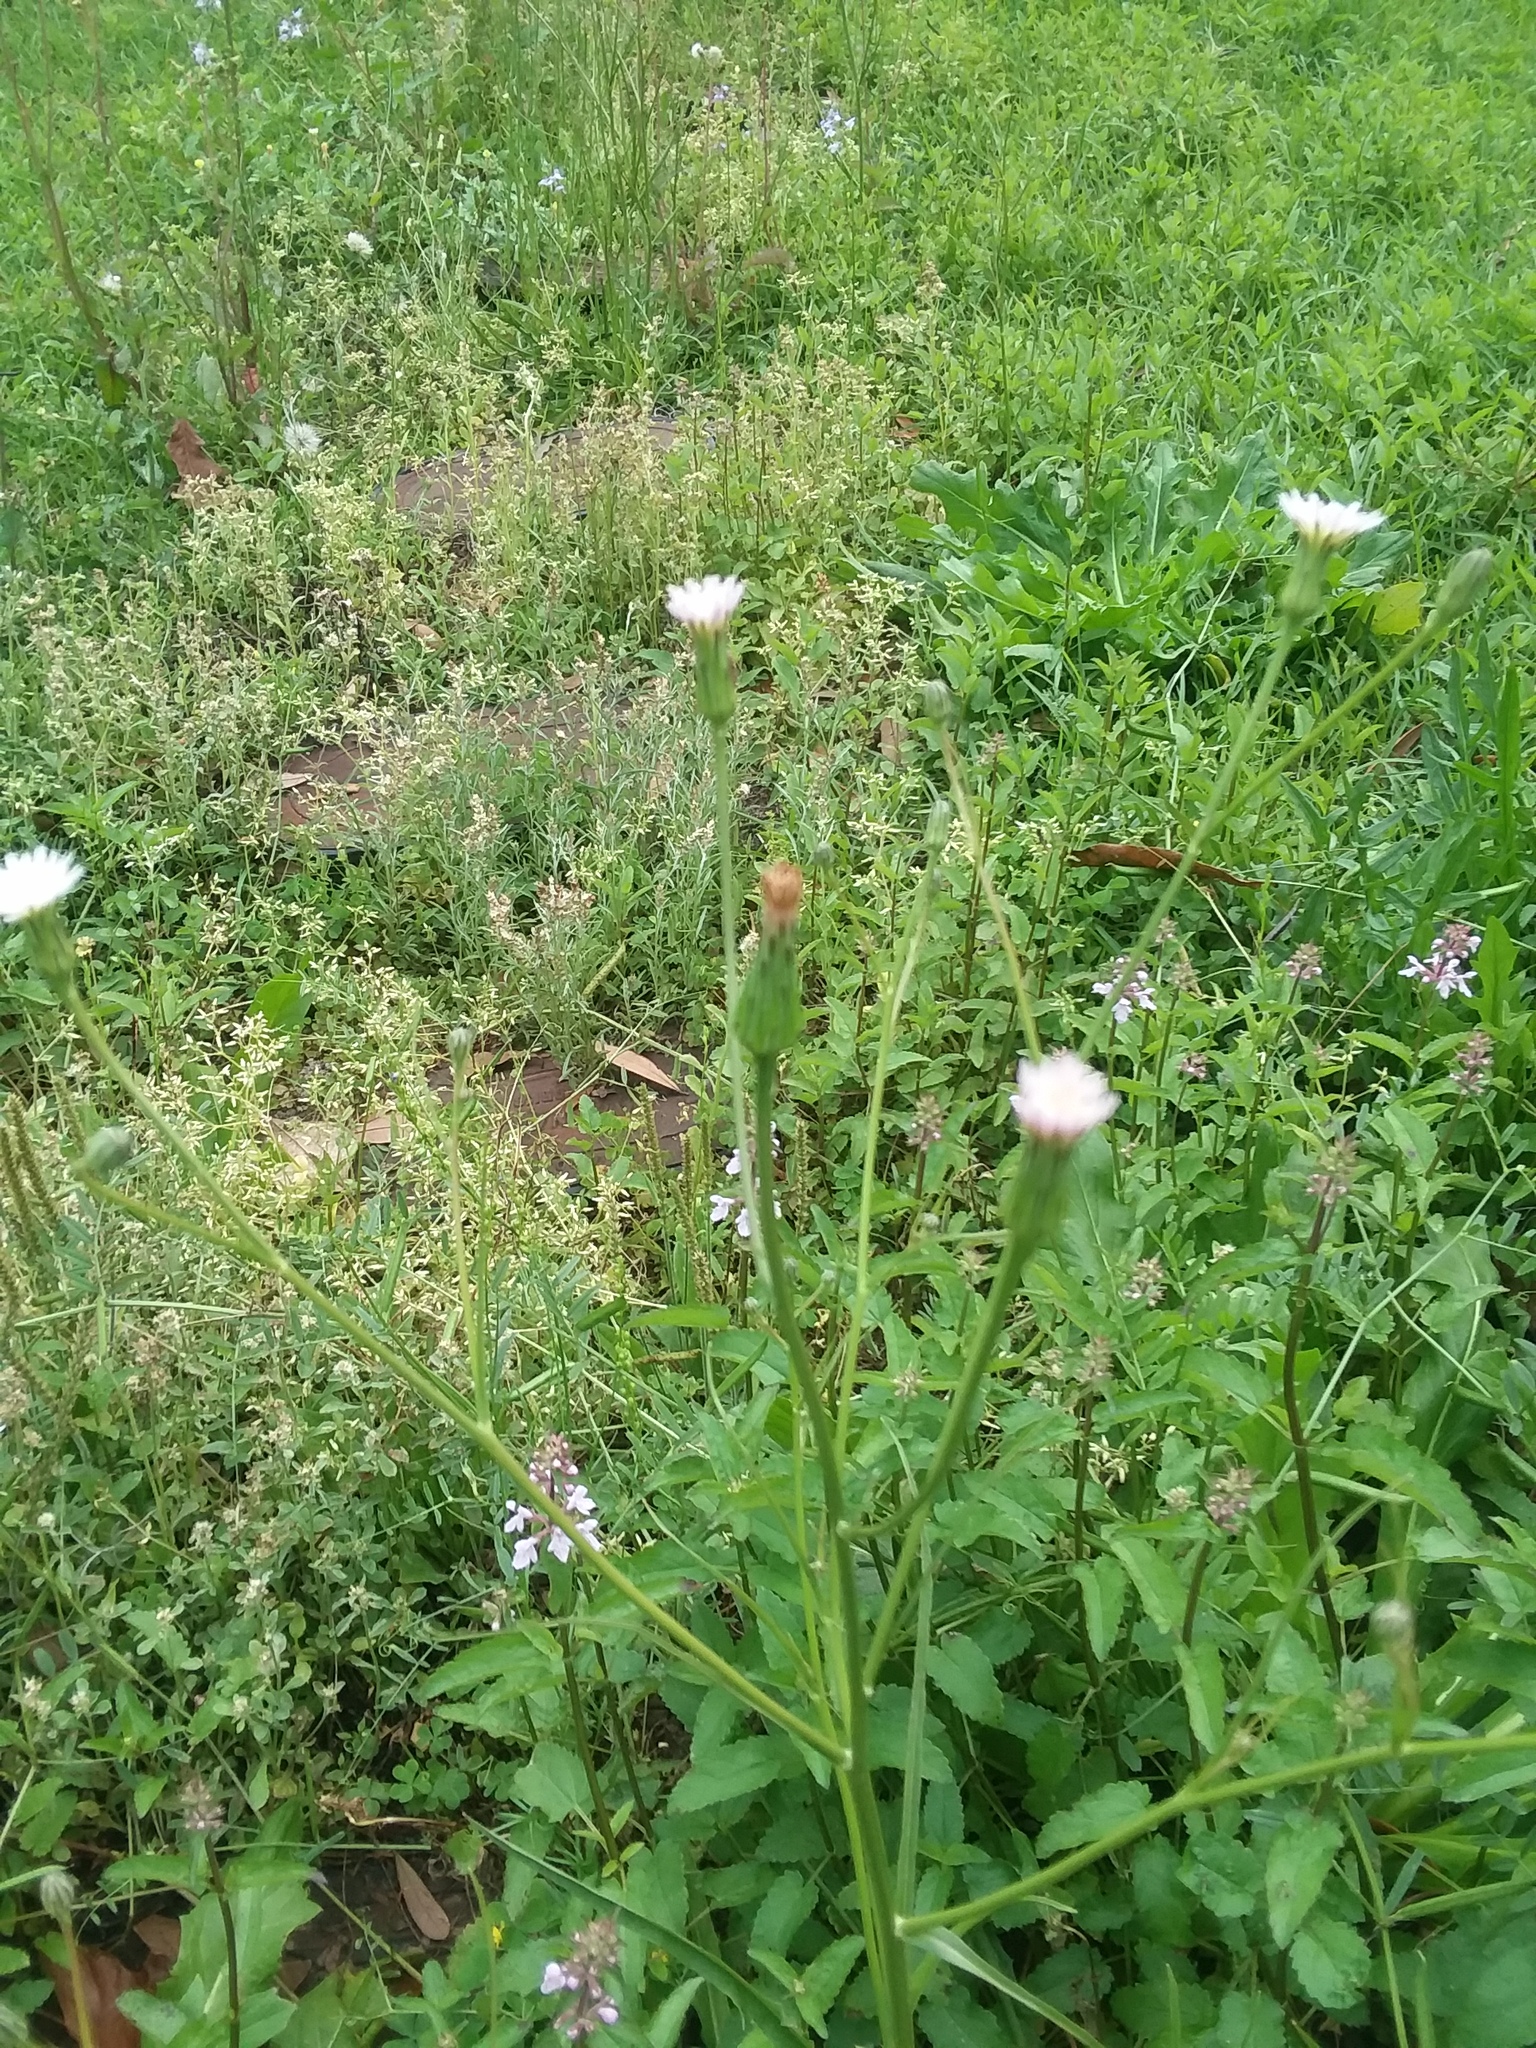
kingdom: Plantae
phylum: Tracheophyta
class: Magnoliopsida
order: Asterales
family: Asteraceae
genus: Hypochaeris
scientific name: Hypochaeris albiflora
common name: White flatweed
